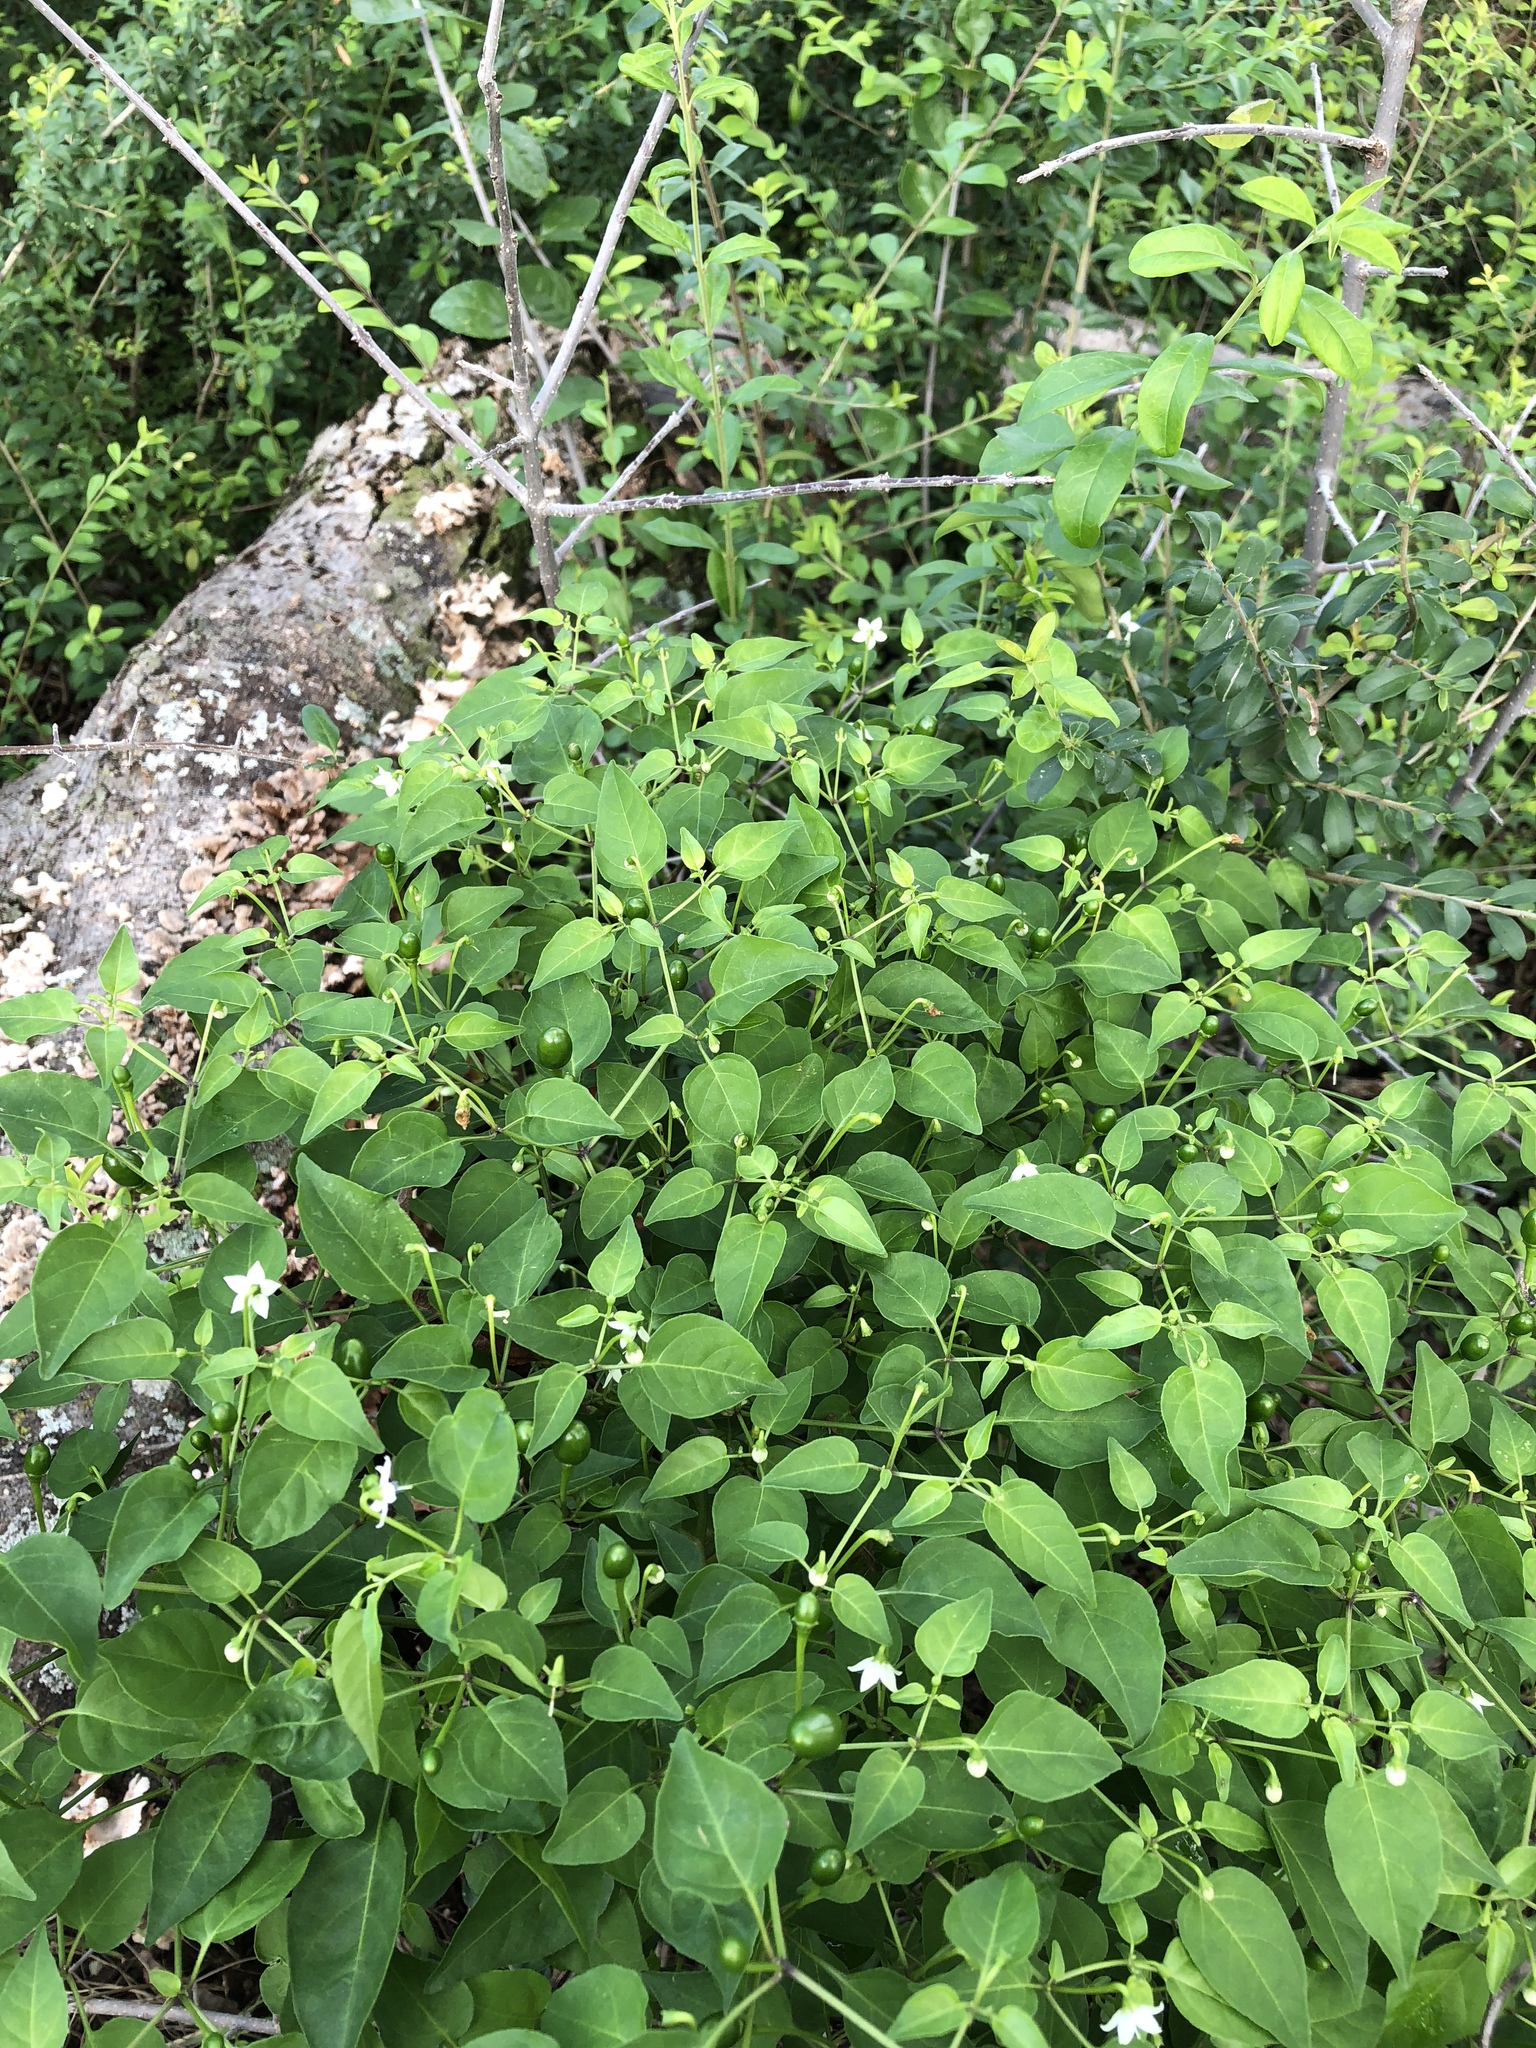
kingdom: Plantae
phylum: Tracheophyta
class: Magnoliopsida
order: Solanales
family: Solanaceae
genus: Capsicum
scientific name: Capsicum annuum
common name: Sweet pepper
